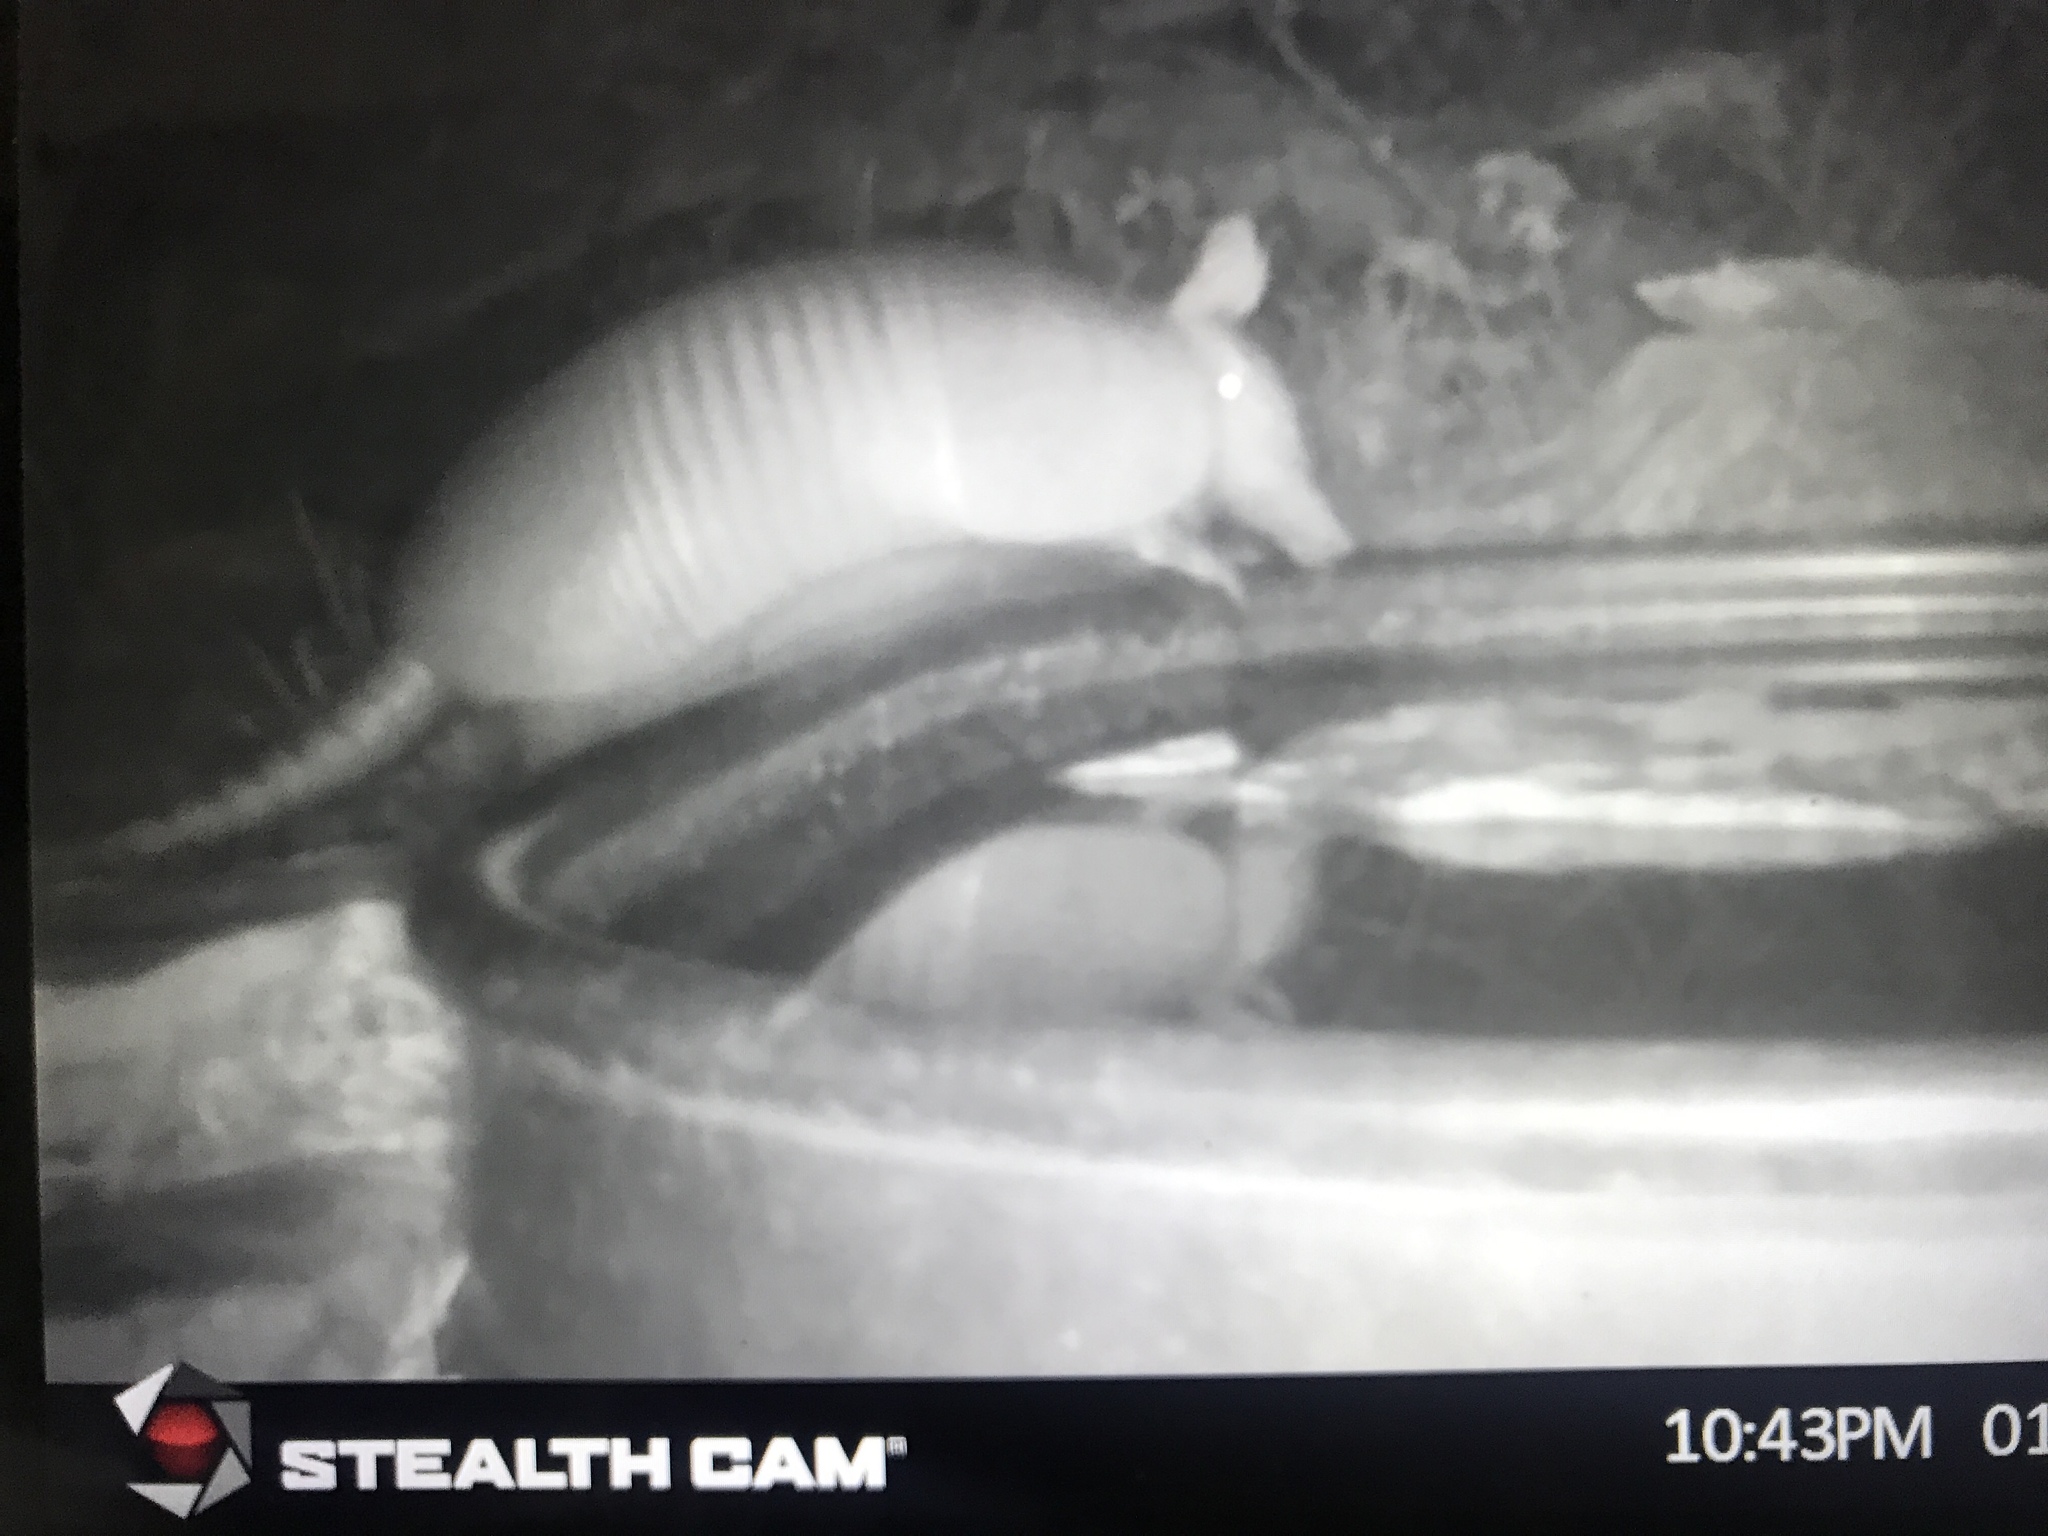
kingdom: Animalia
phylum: Chordata
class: Mammalia
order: Cingulata
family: Dasypodidae
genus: Dasypus
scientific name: Dasypus novemcinctus
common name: Nine-banded armadillo
